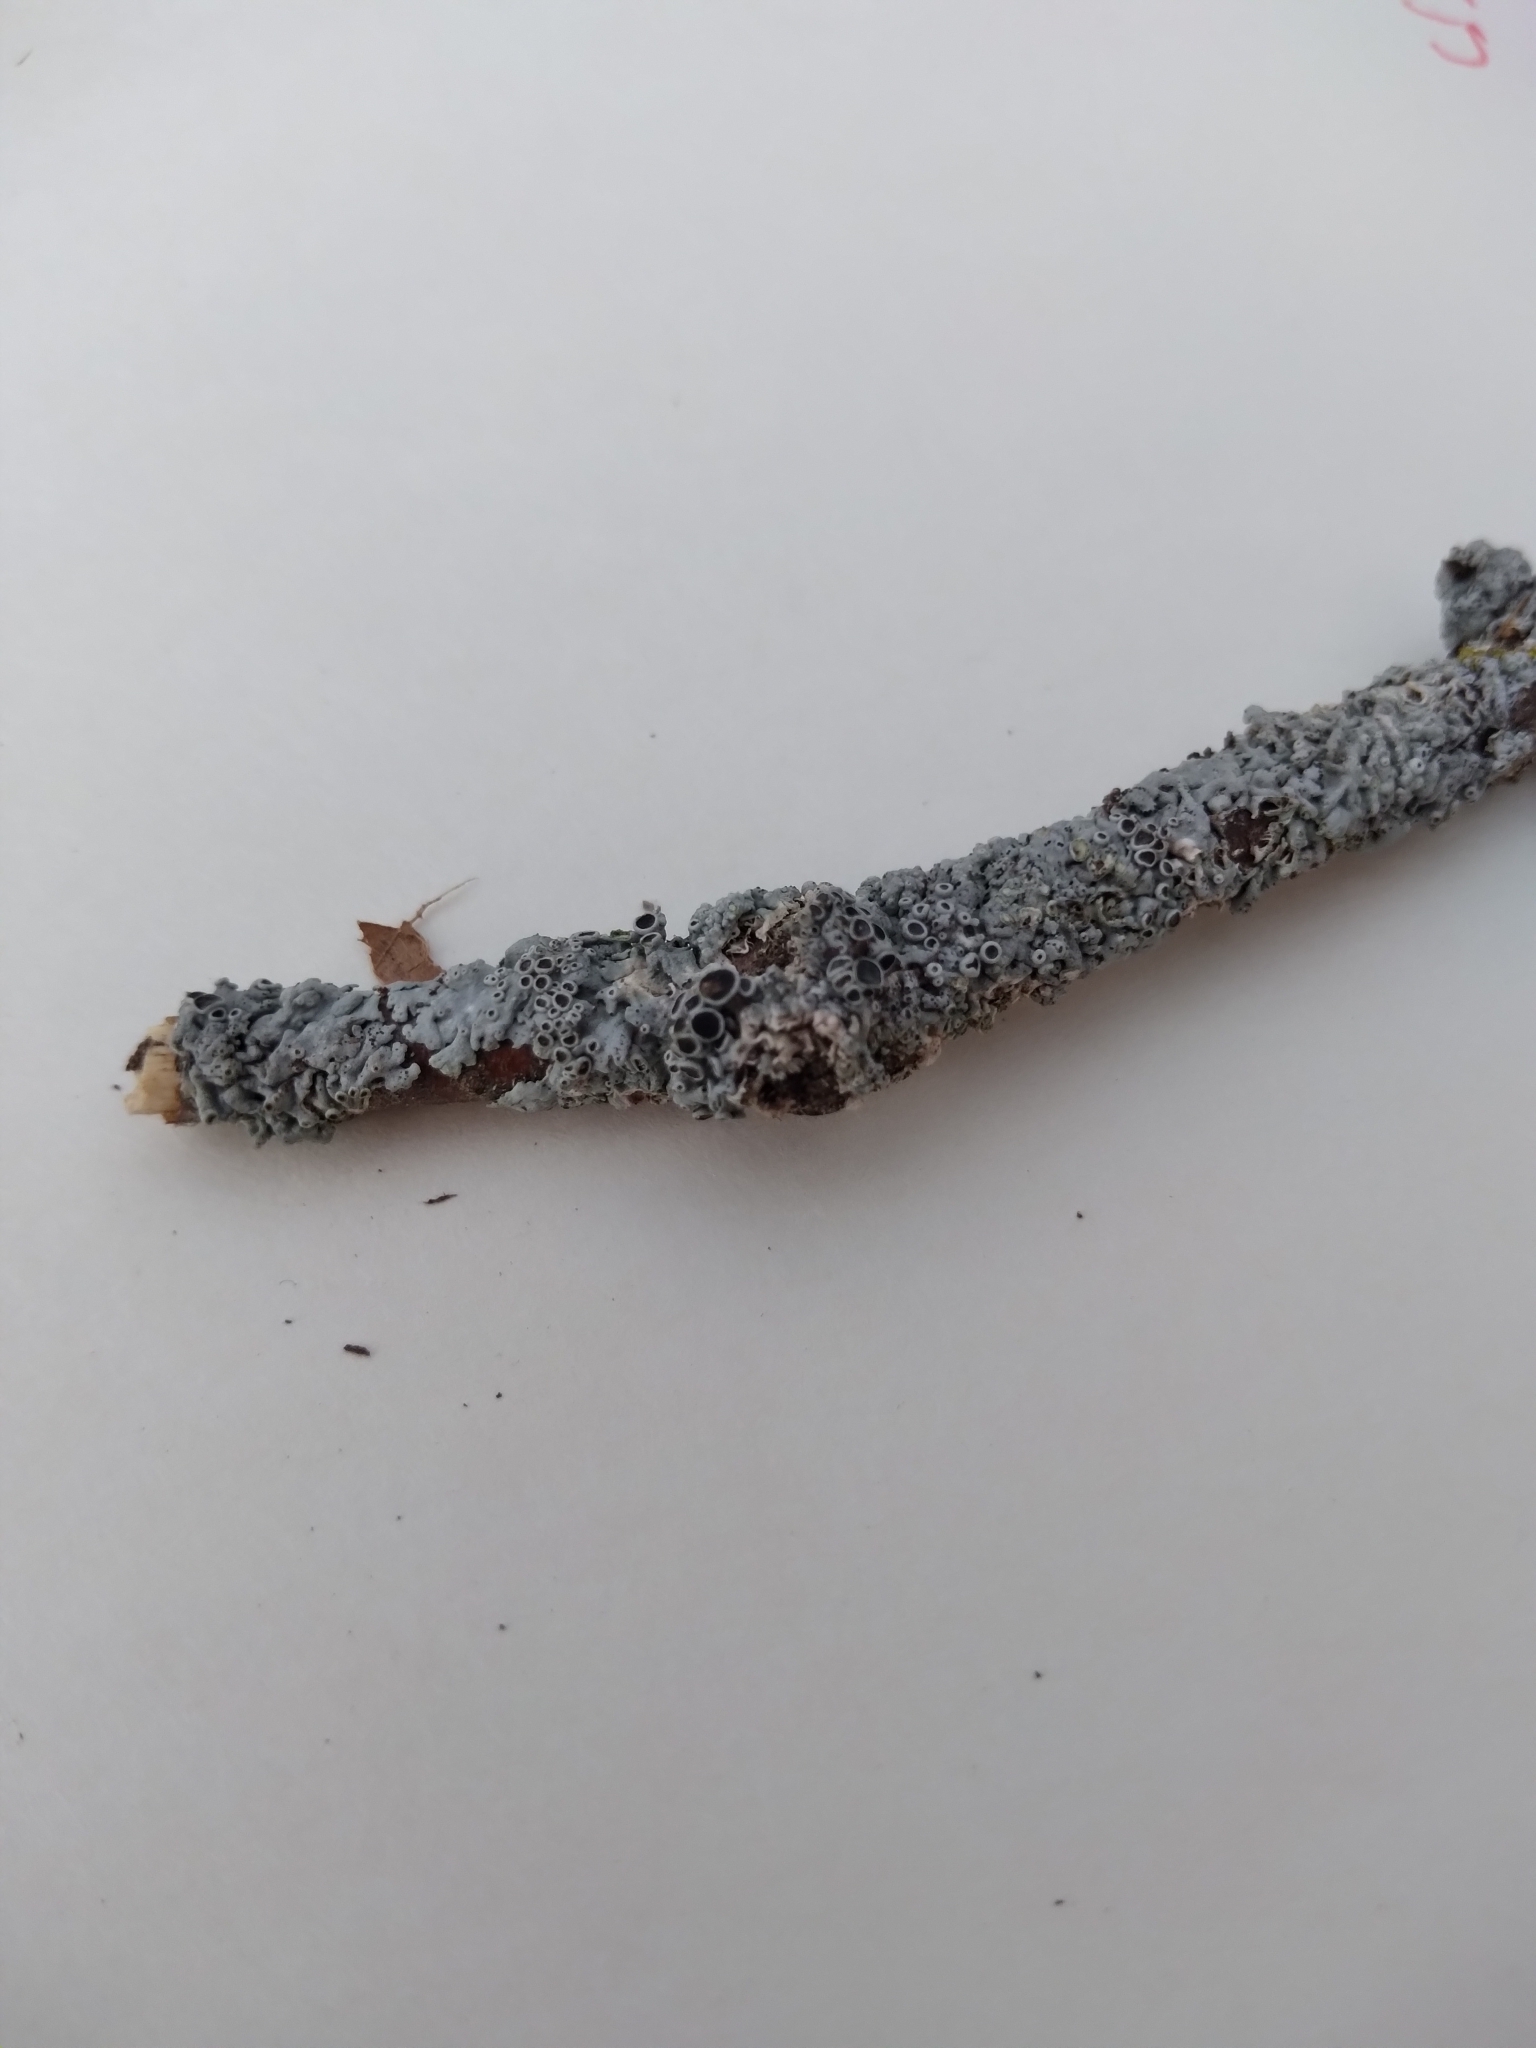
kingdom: Fungi
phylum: Ascomycota
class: Lecanoromycetes
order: Caliciales
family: Physciaceae
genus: Physcia
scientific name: Physcia stellaris
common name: Star rosette lichen
